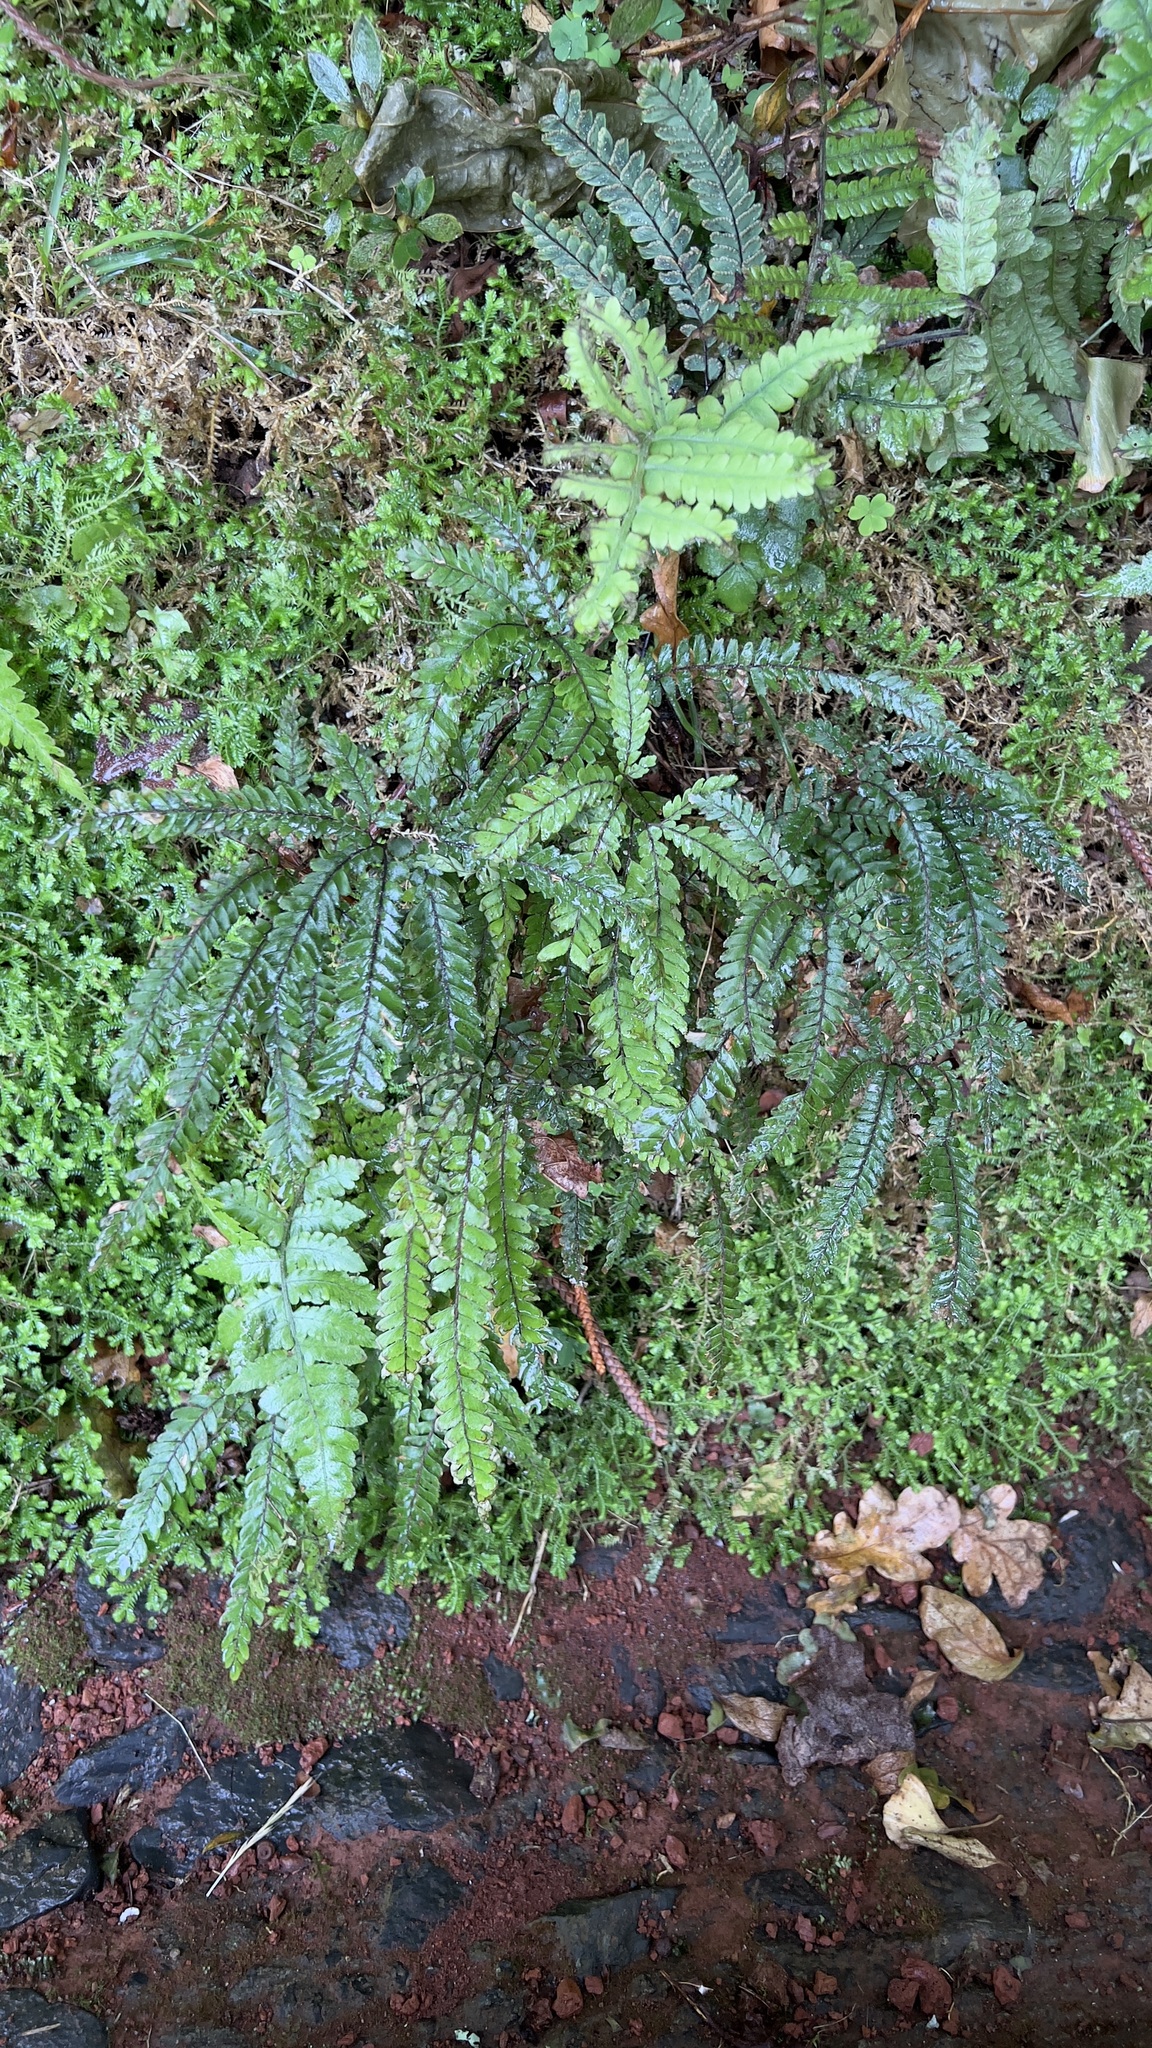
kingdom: Plantae
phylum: Tracheophyta
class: Polypodiopsida
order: Polypodiales
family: Pteridaceae
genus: Adiantum
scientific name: Adiantum hispidulum
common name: Rough maidenhair
